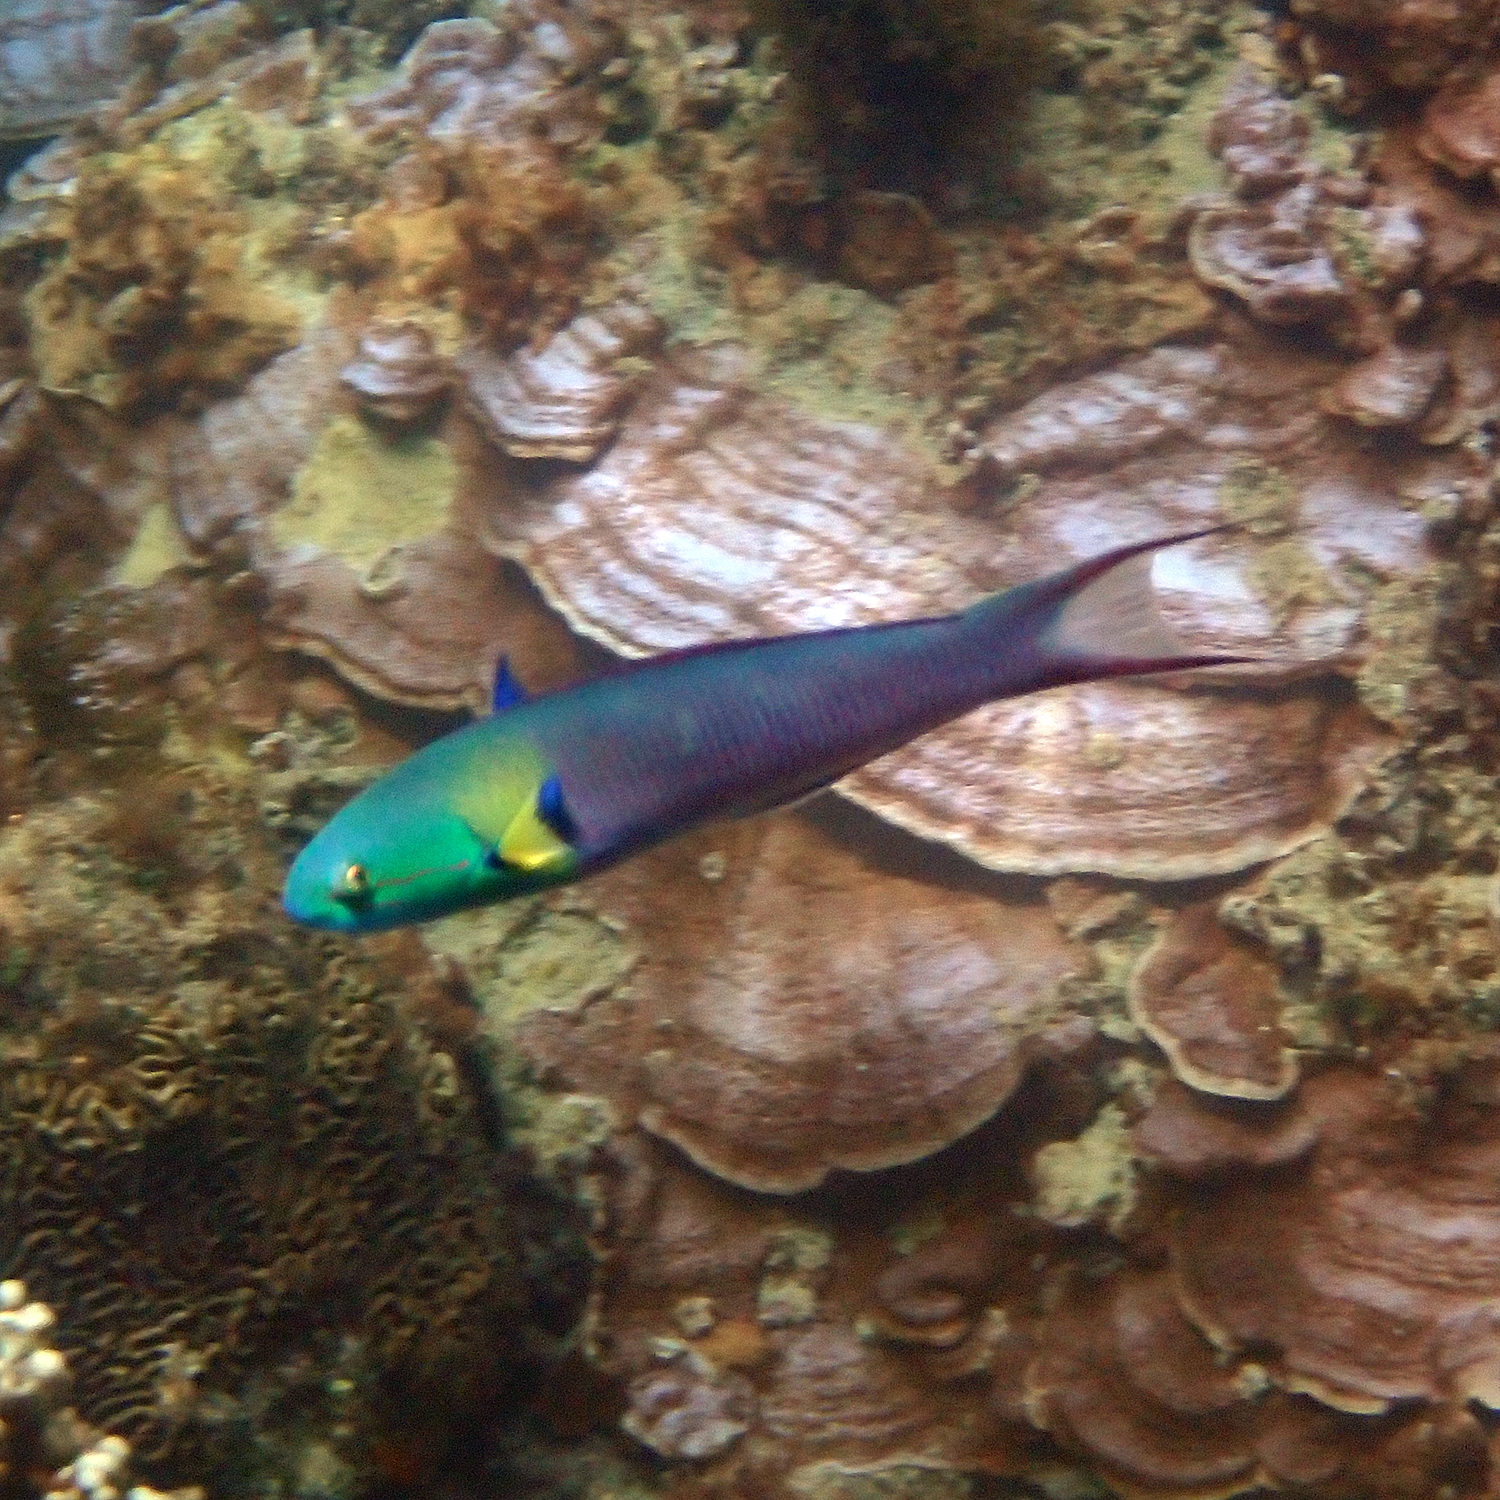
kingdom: Animalia
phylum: Chordata
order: Perciformes
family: Labridae
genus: Thalassoma
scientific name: Thalassoma amblycephalum
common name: Bluehead wrasse
